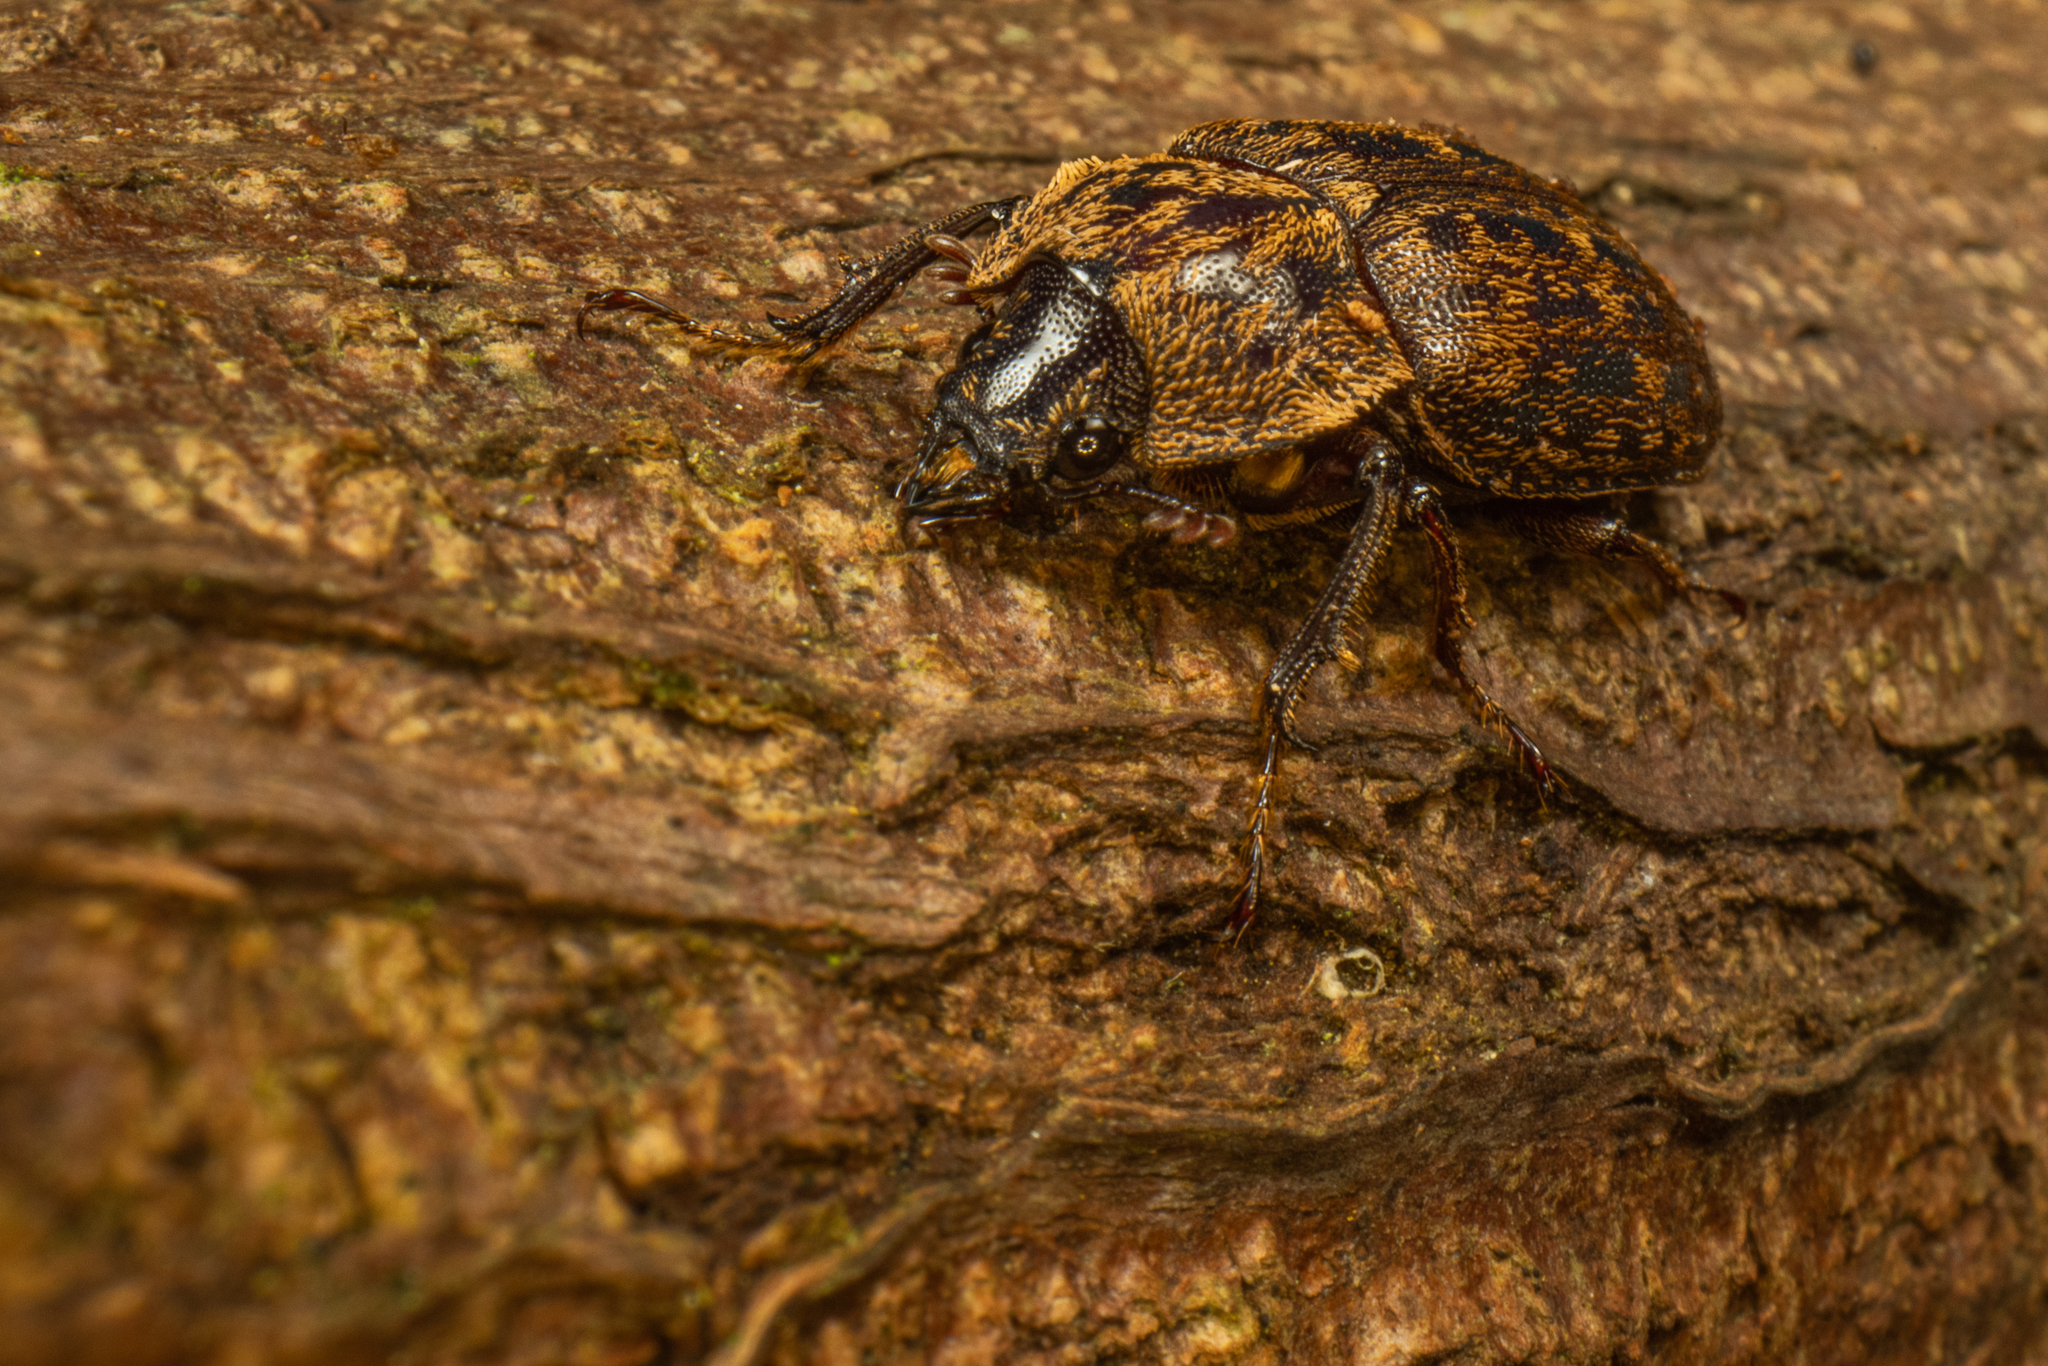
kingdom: Animalia
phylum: Arthropoda
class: Insecta
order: Coleoptera
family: Lucanidae
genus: Mitophyllus
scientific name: Mitophyllus parrianus
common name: Parry's stag beetle
